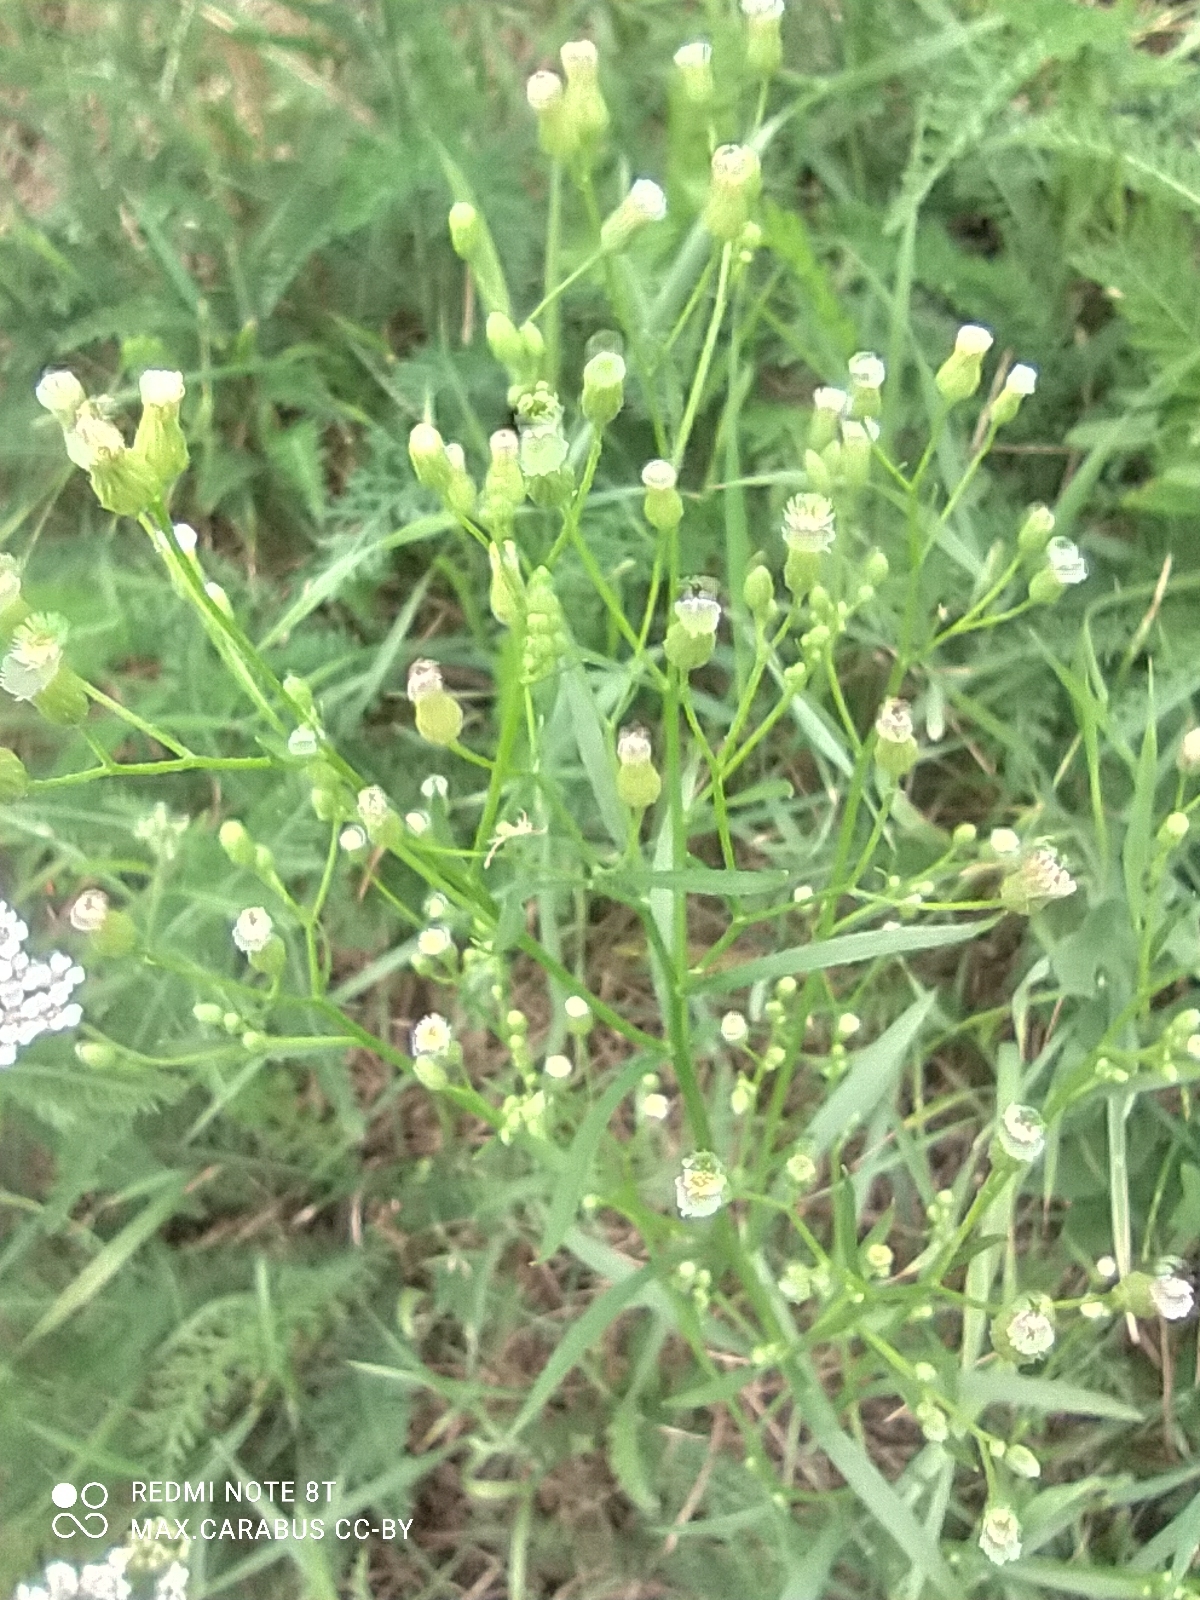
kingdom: Plantae
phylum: Tracheophyta
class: Magnoliopsida
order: Asterales
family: Asteraceae
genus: Erigeron
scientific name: Erigeron canadensis
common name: Canadian fleabane
